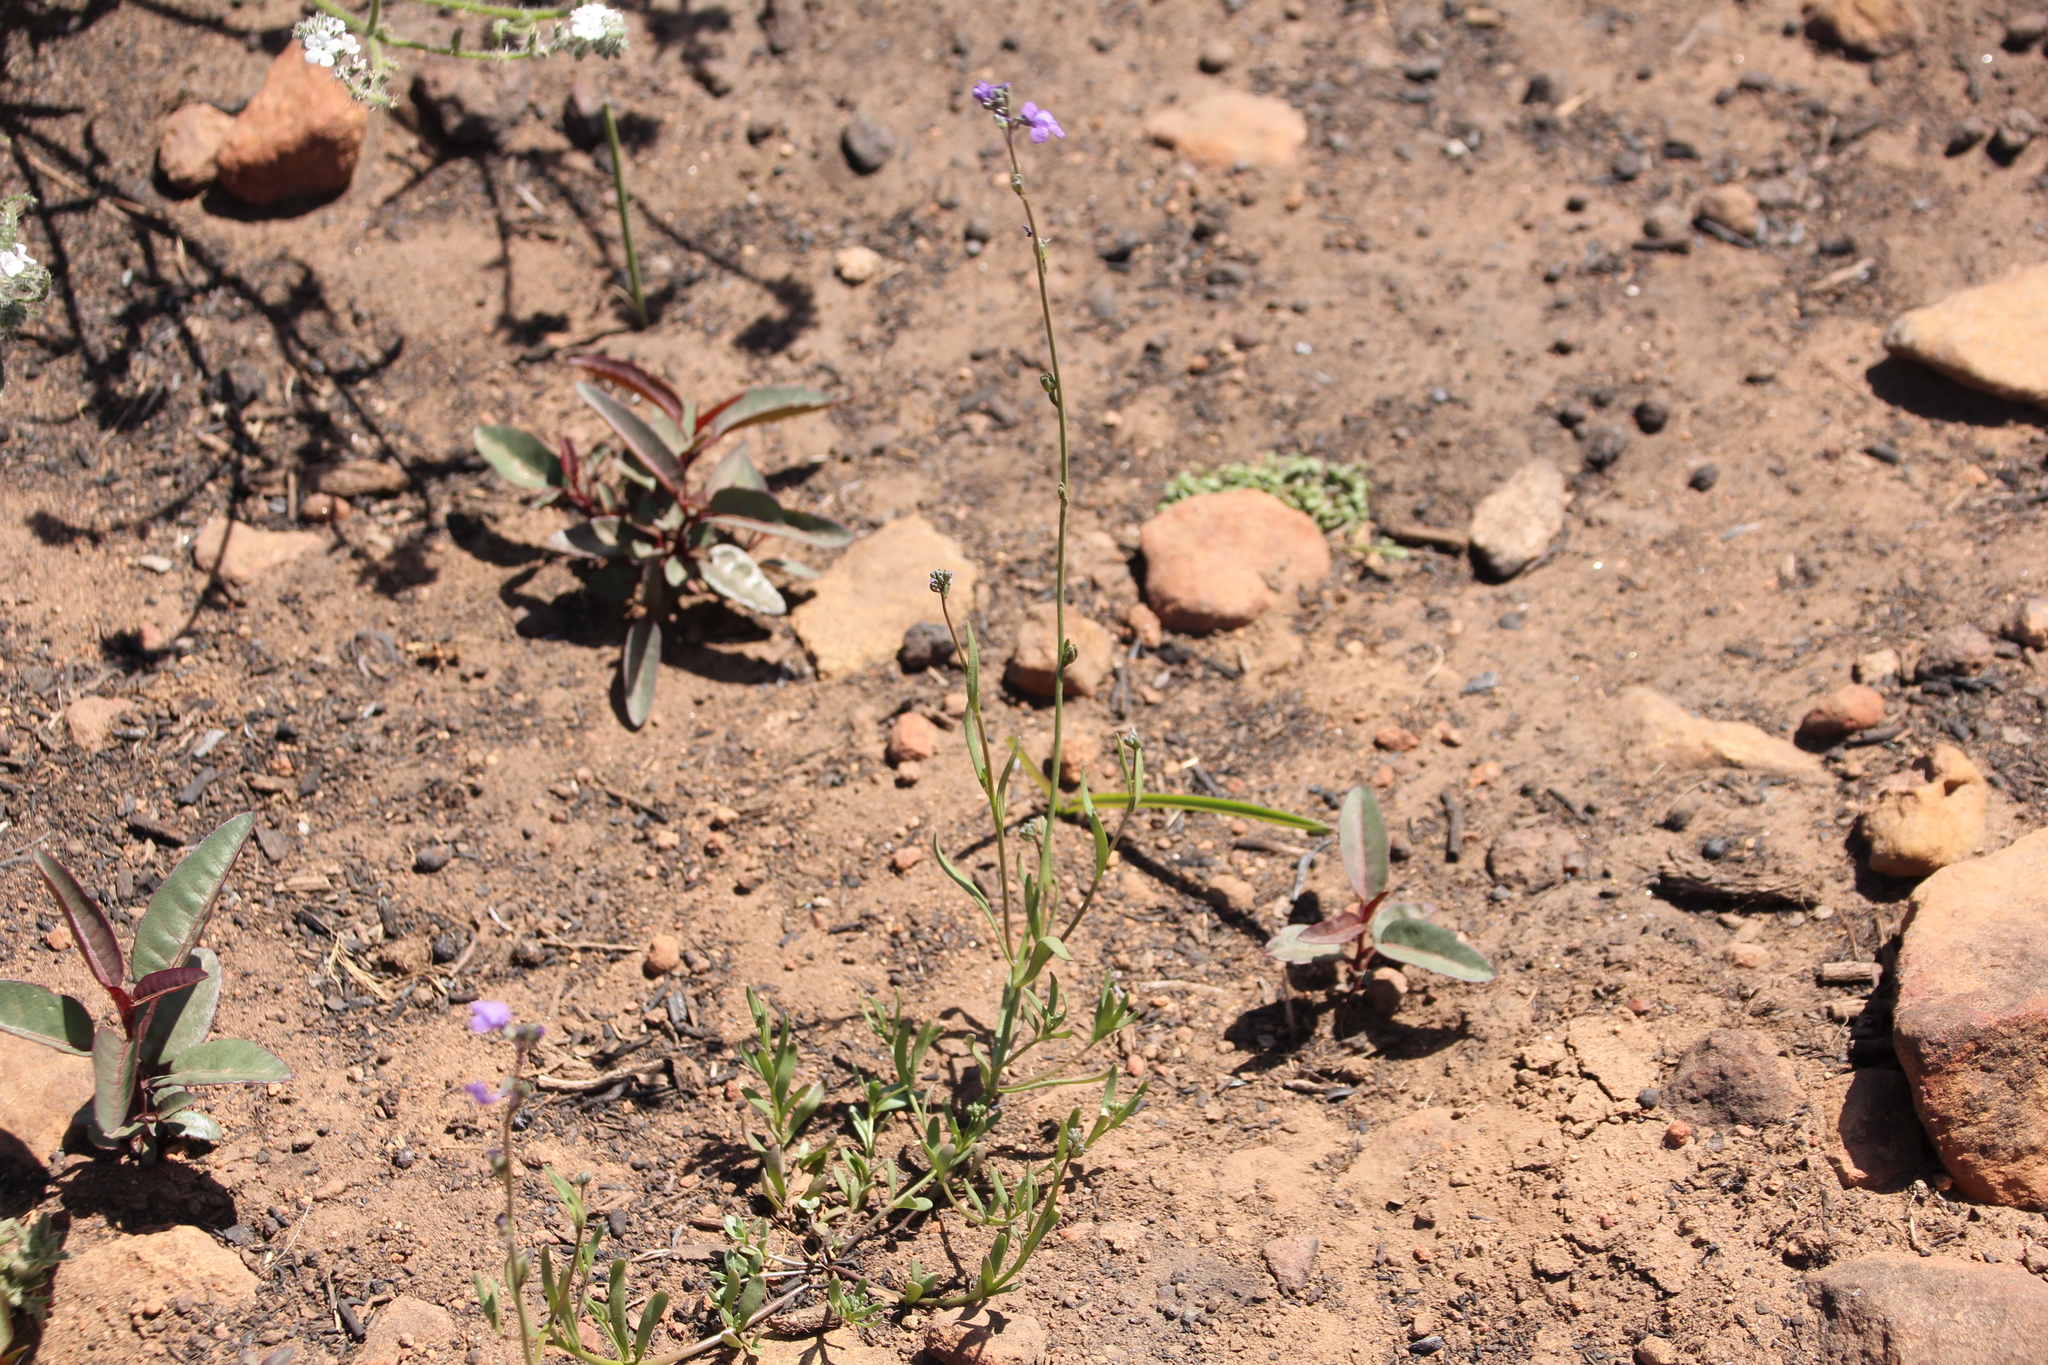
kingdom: Plantae
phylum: Tracheophyta
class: Magnoliopsida
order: Lamiales
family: Plantaginaceae
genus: Nuttallanthus
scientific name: Nuttallanthus texanus
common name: Texas toadflax
